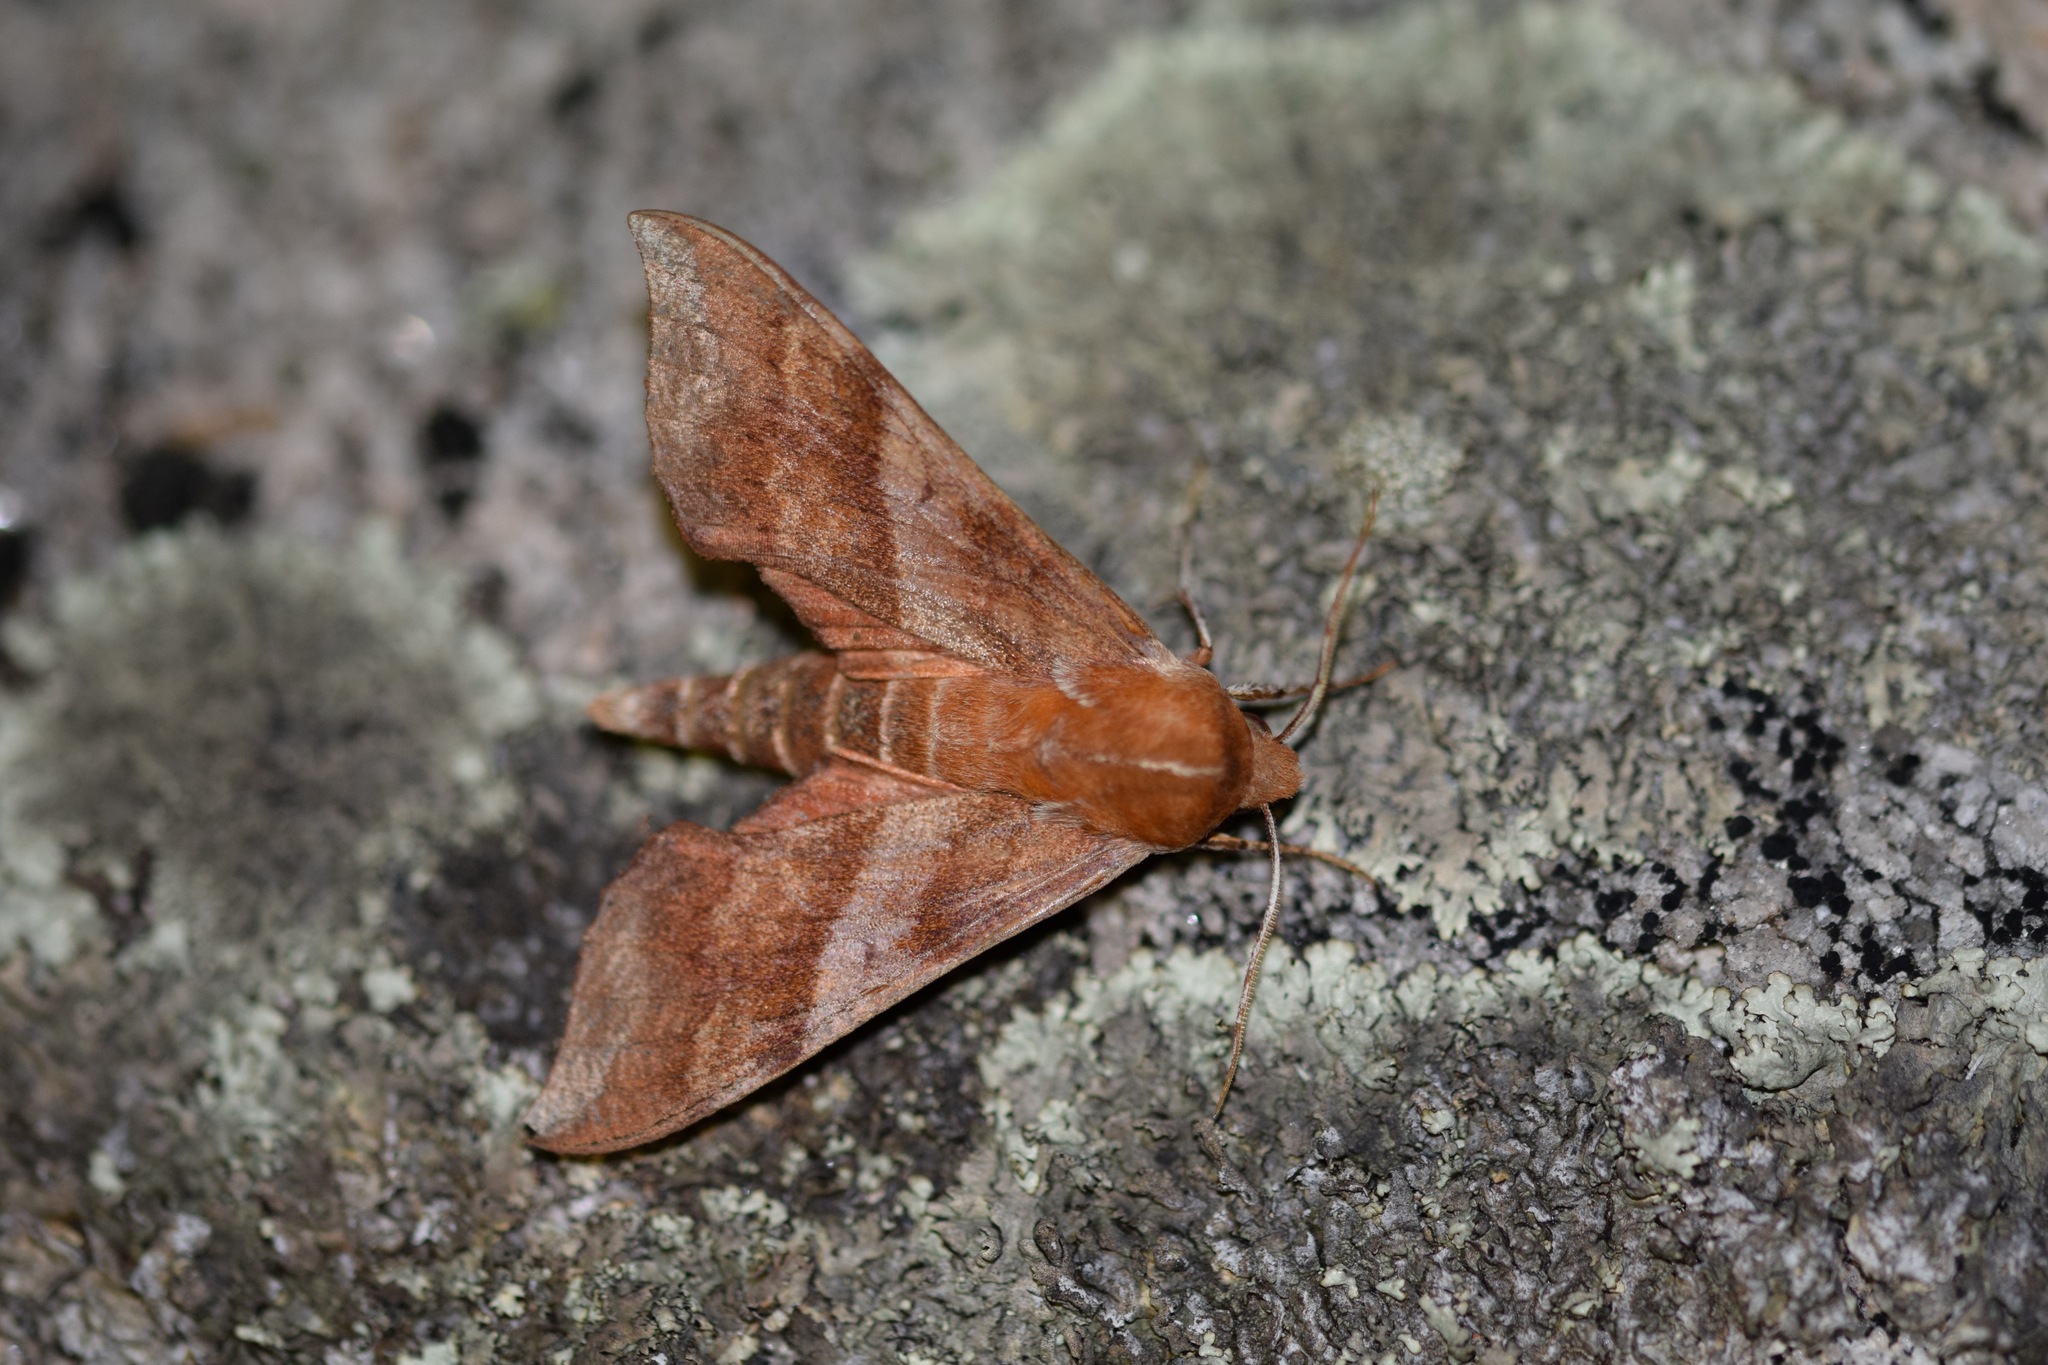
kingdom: Animalia
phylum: Arthropoda
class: Insecta
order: Lepidoptera
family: Sphingidae
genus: Darapsa
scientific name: Darapsa choerilus
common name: Azalea sphinx
